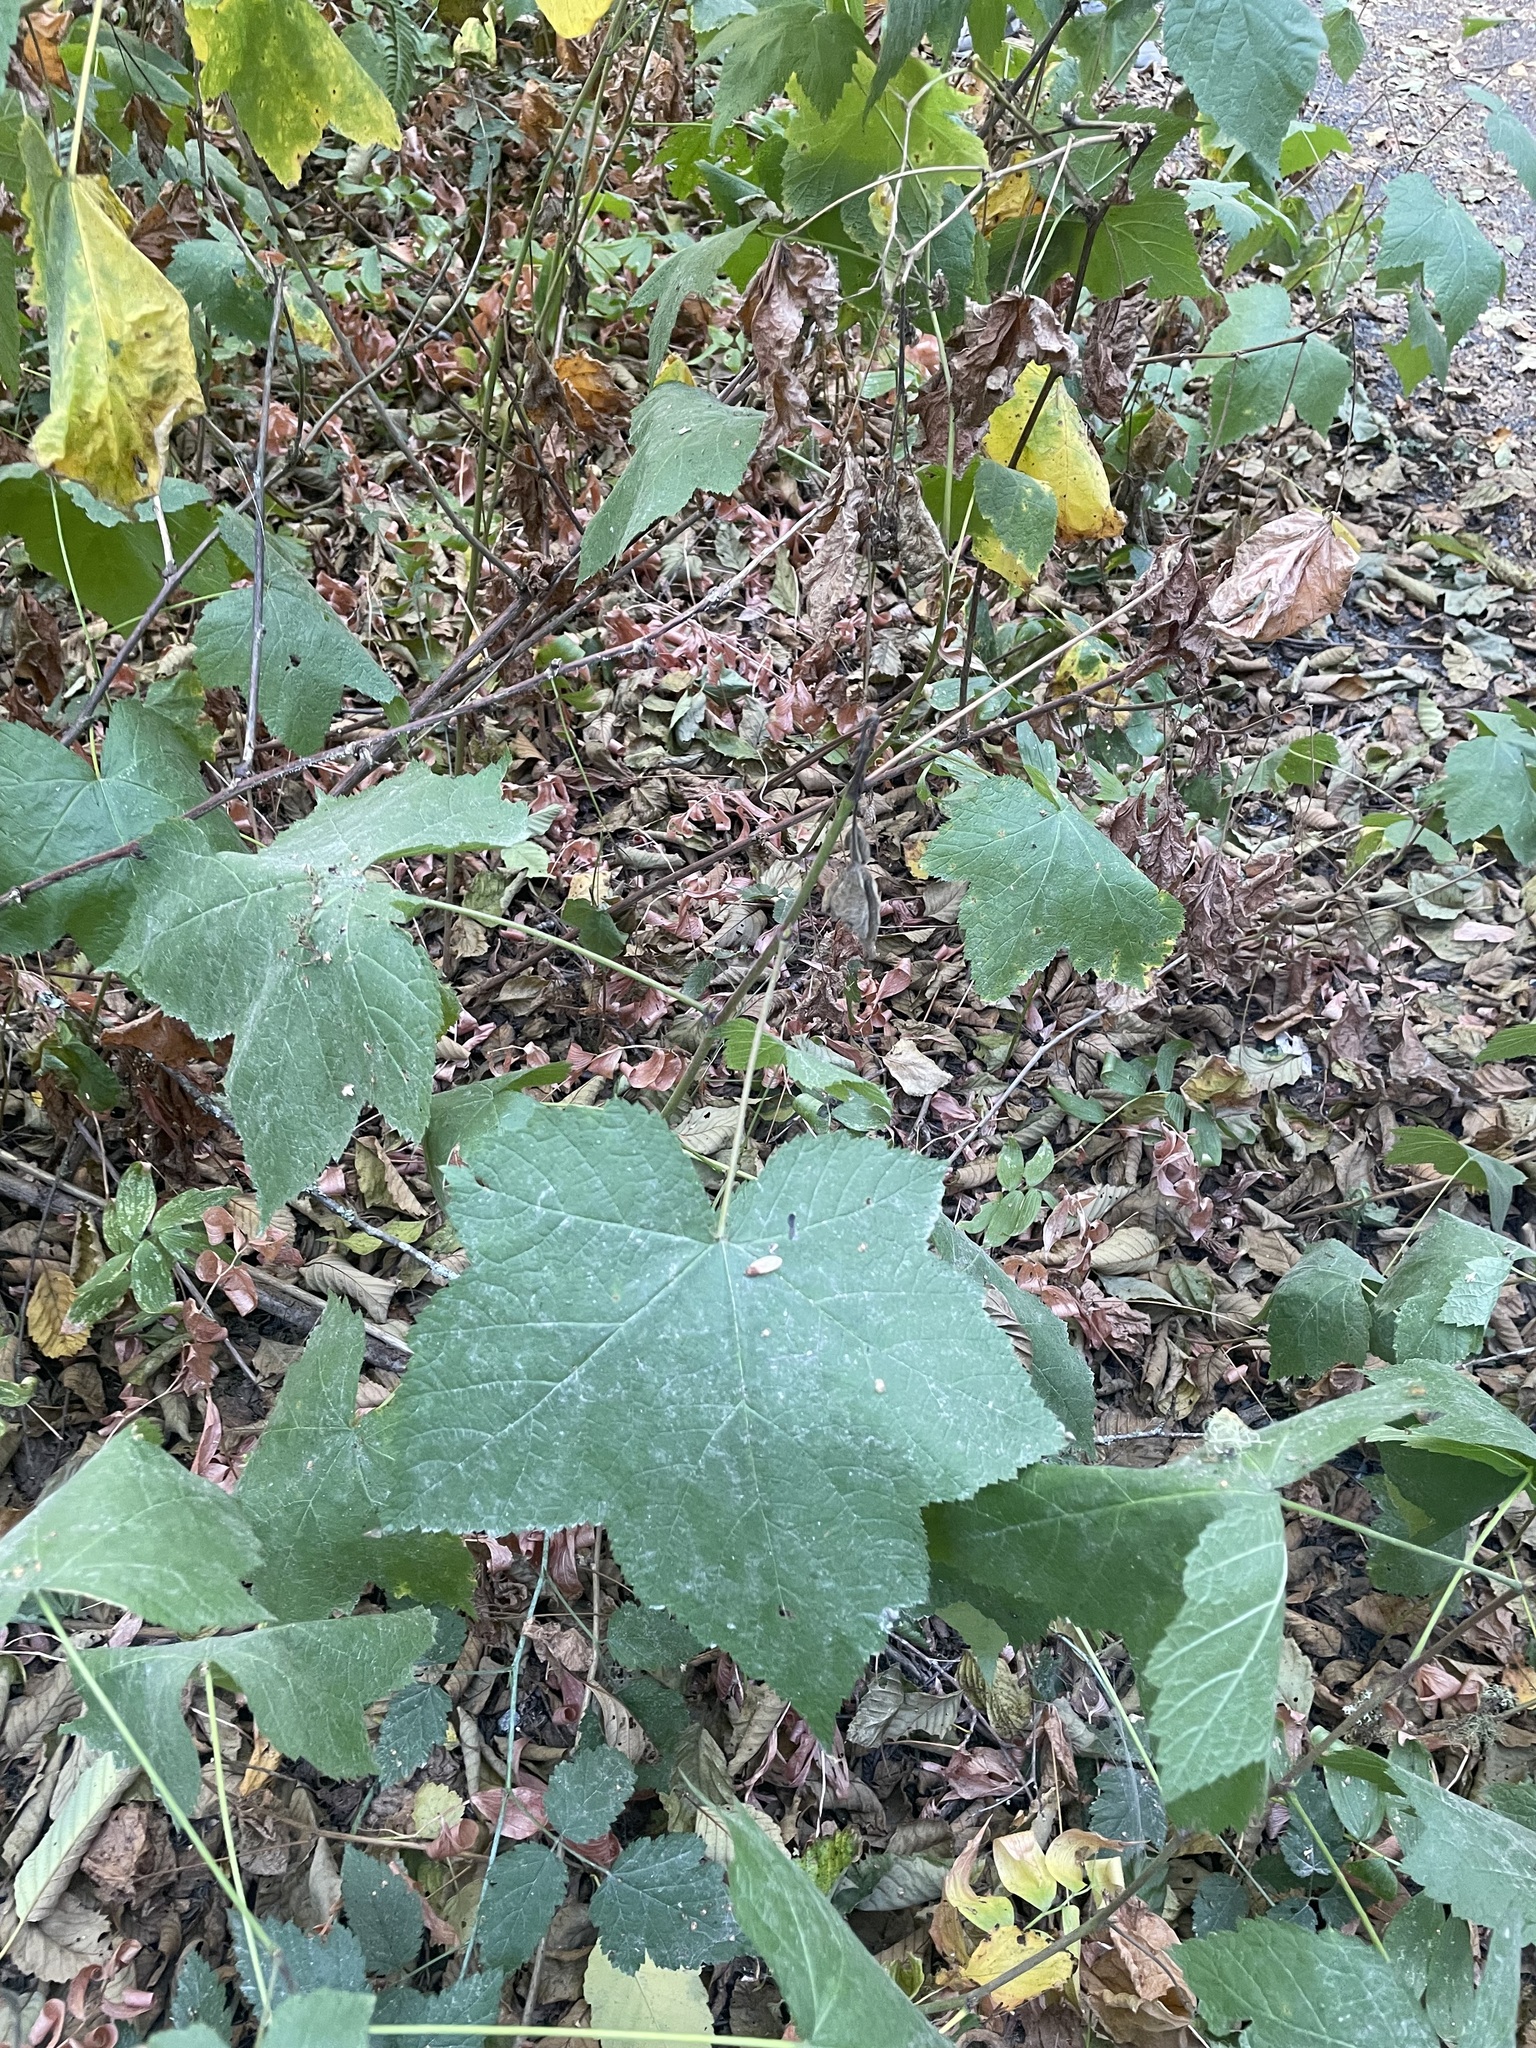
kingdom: Plantae
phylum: Tracheophyta
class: Magnoliopsida
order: Rosales
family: Rosaceae
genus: Rubus
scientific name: Rubus parviflorus
